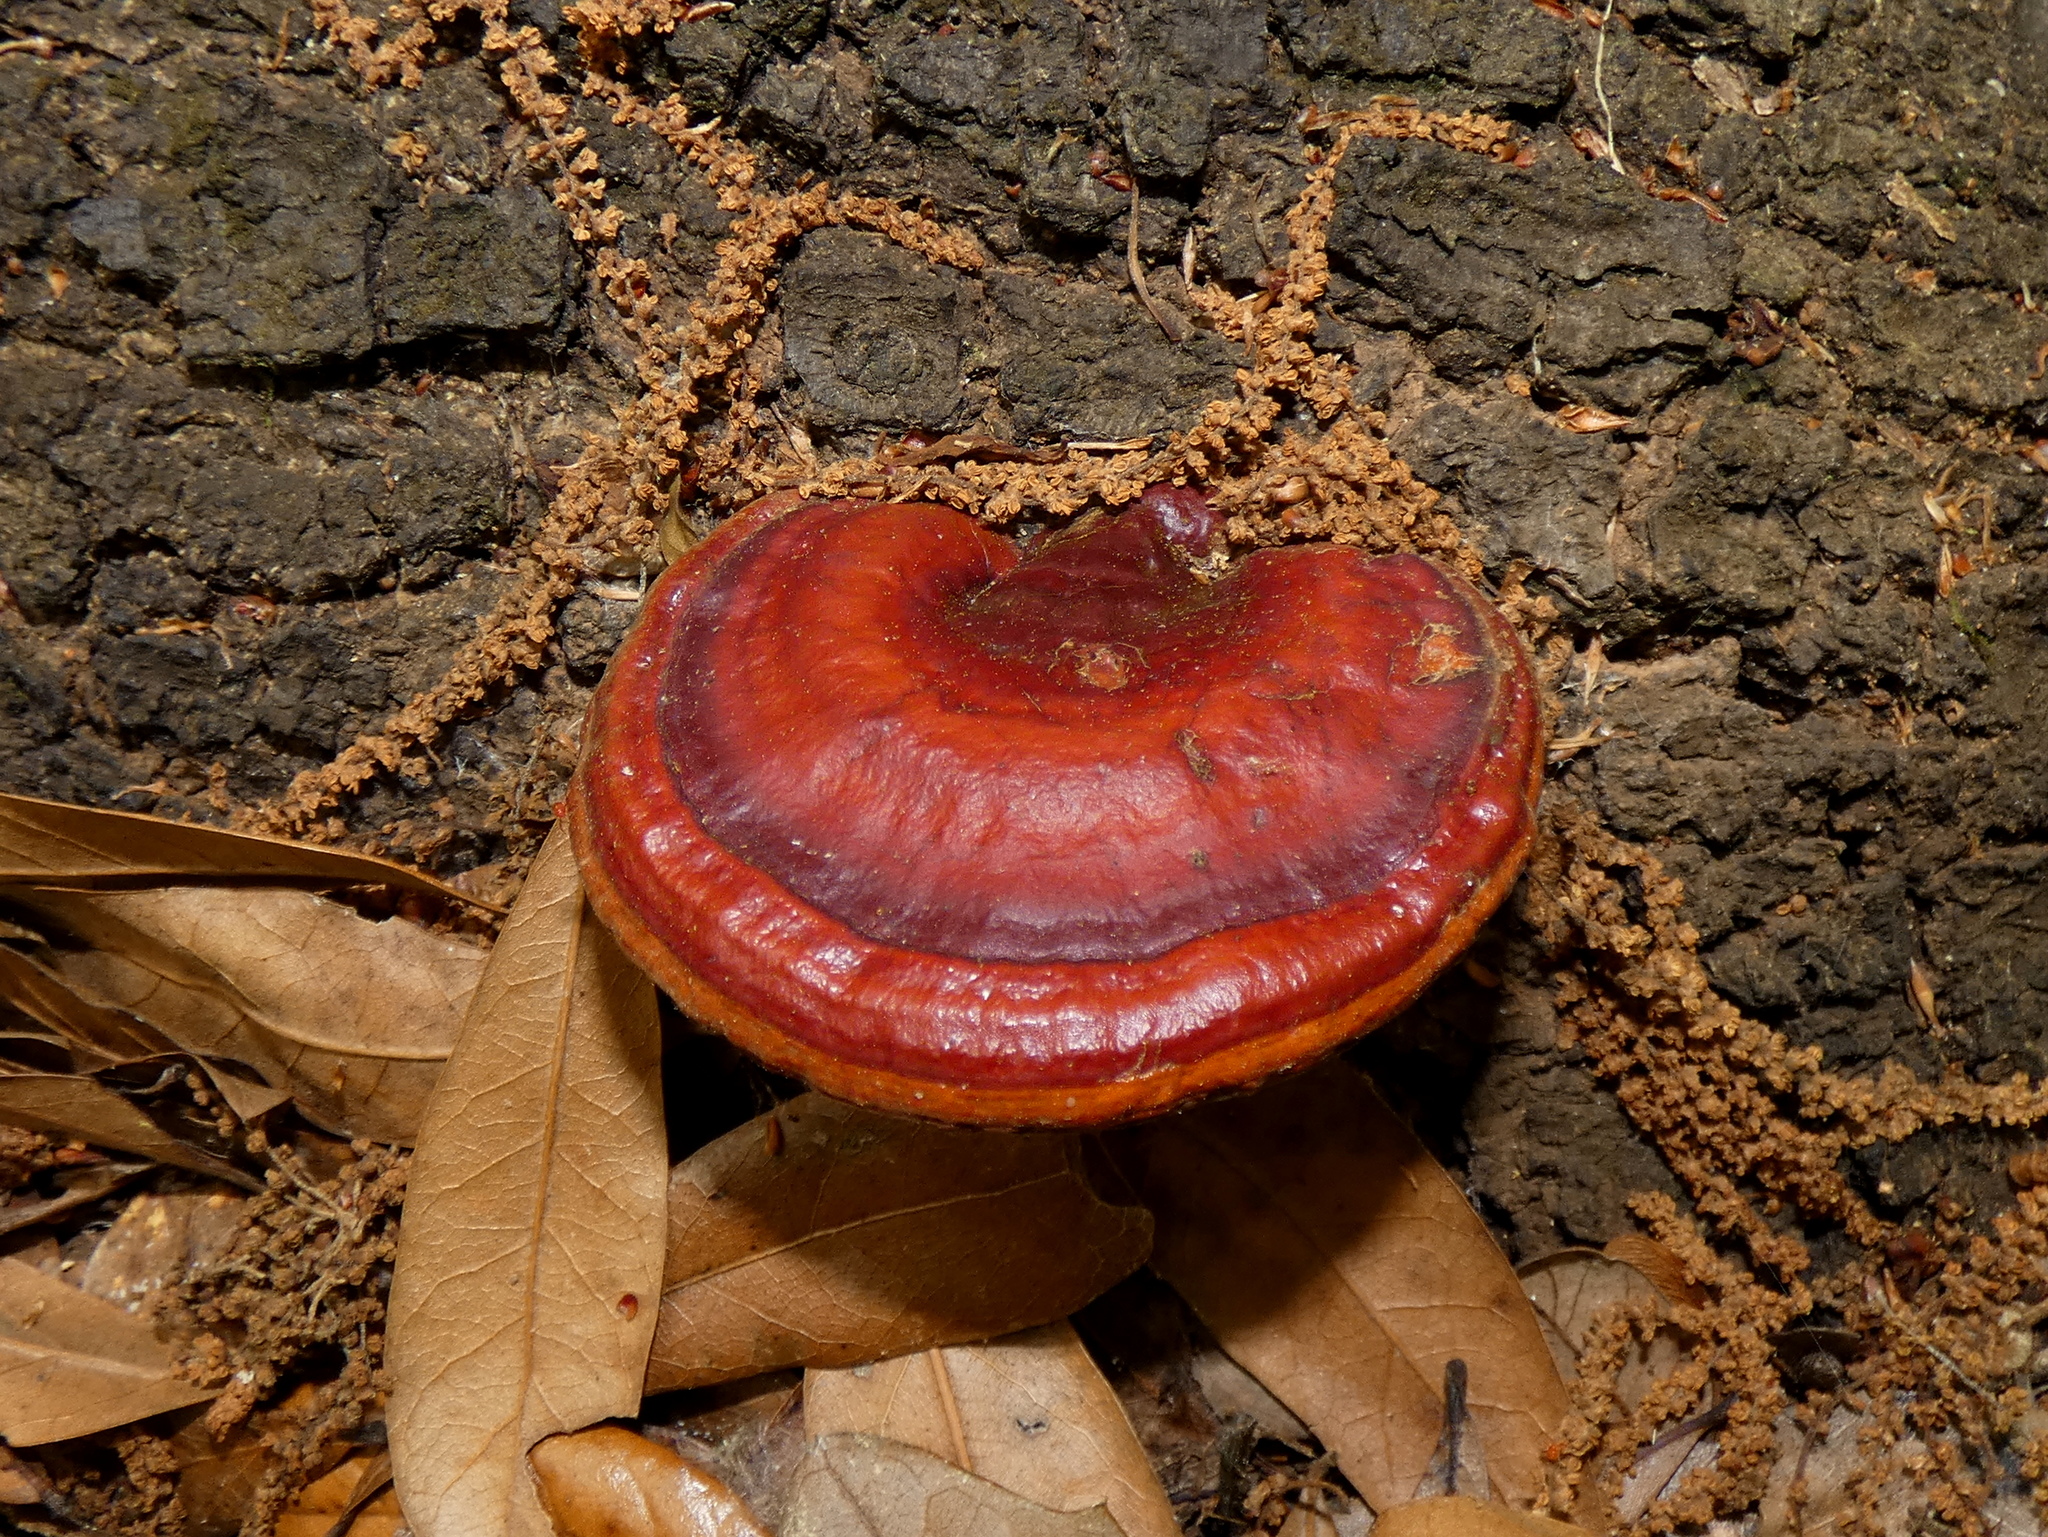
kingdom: Fungi
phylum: Basidiomycota
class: Agaricomycetes
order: Polyporales
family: Polyporaceae
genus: Ganoderma
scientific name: Ganoderma curtisii
